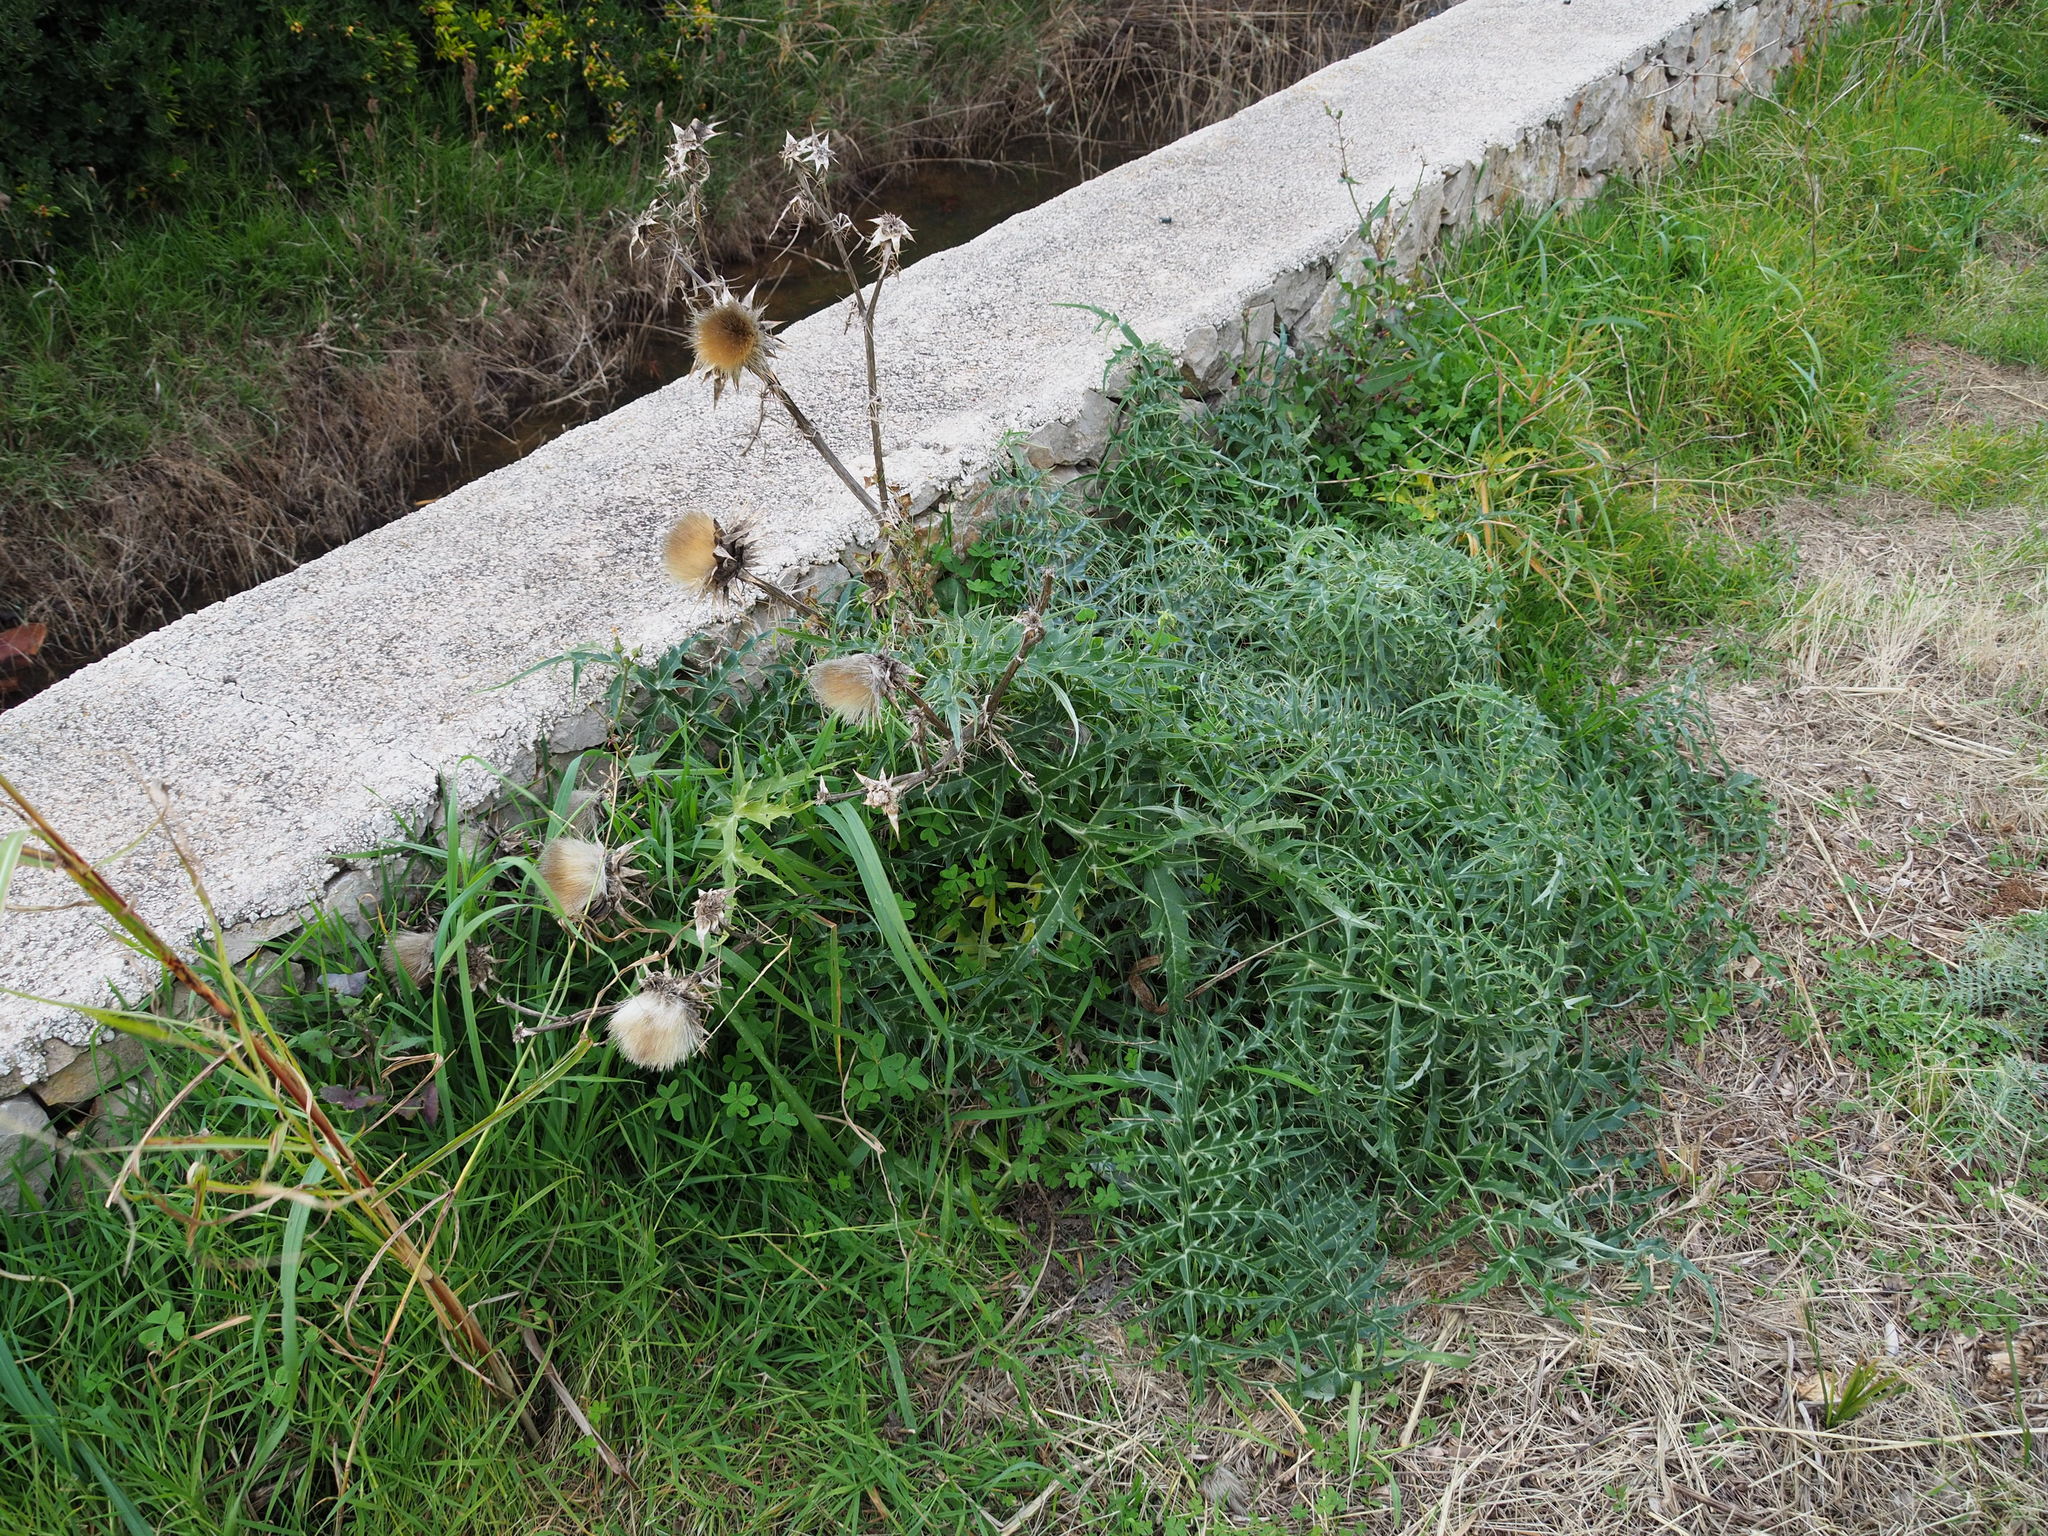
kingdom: Plantae
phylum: Tracheophyta
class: Magnoliopsida
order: Asterales
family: Asteraceae
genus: Cynara
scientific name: Cynara cardunculus
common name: Globe artichoke
